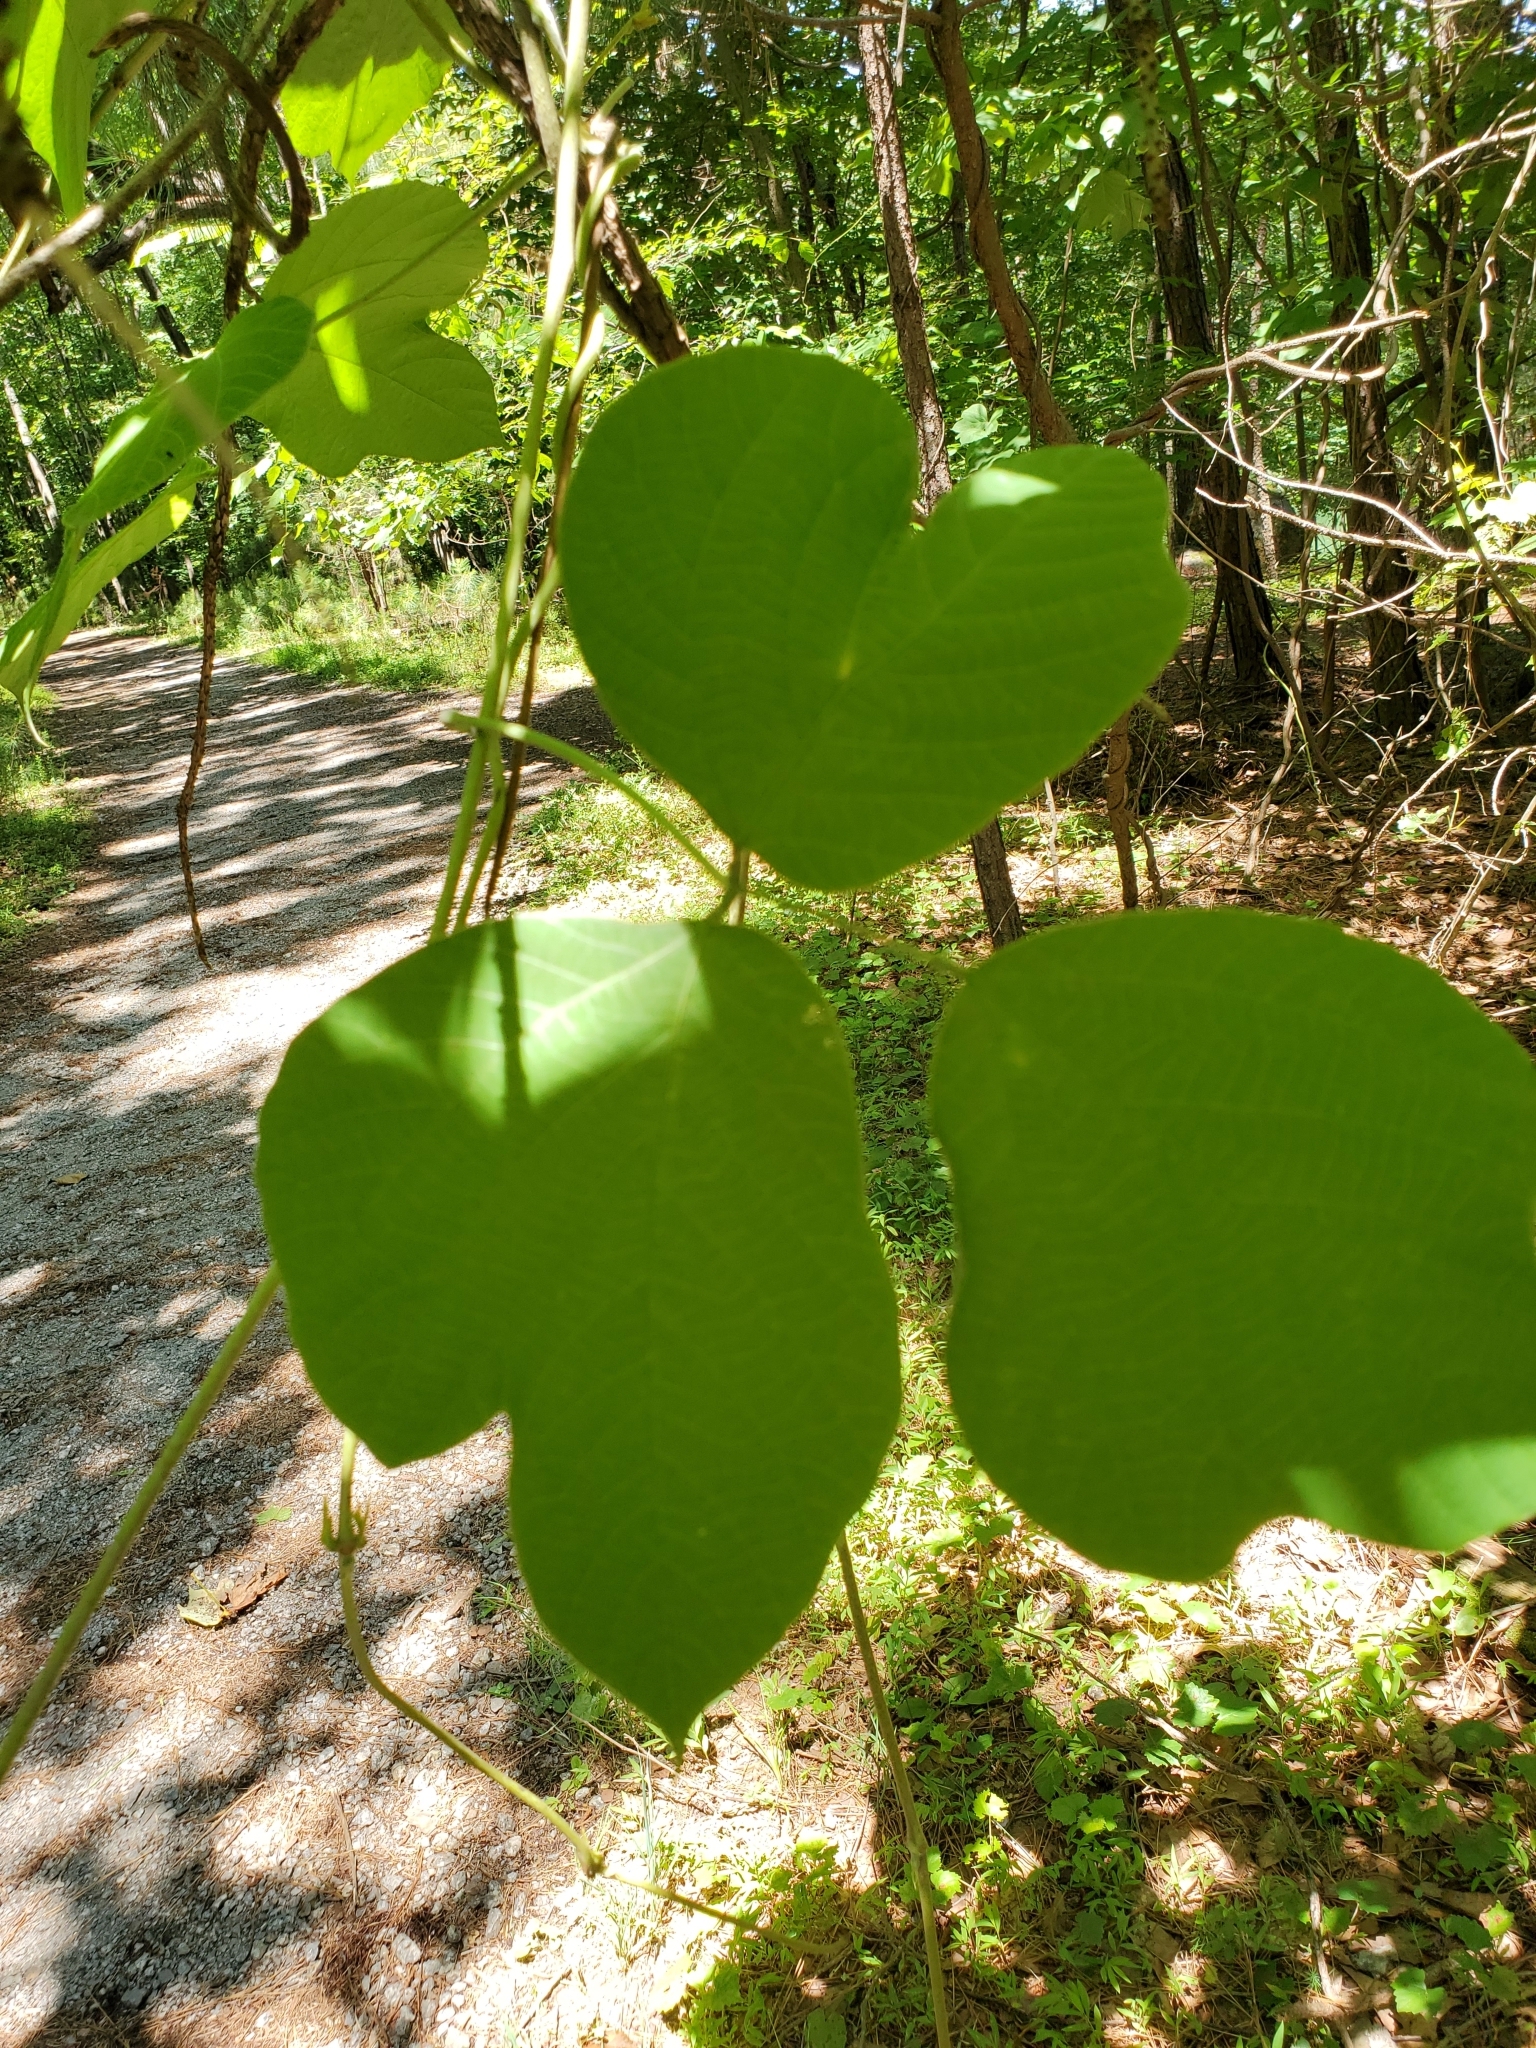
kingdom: Plantae
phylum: Tracheophyta
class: Magnoliopsida
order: Fabales
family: Fabaceae
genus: Pueraria
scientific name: Pueraria montana
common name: Kudzu
